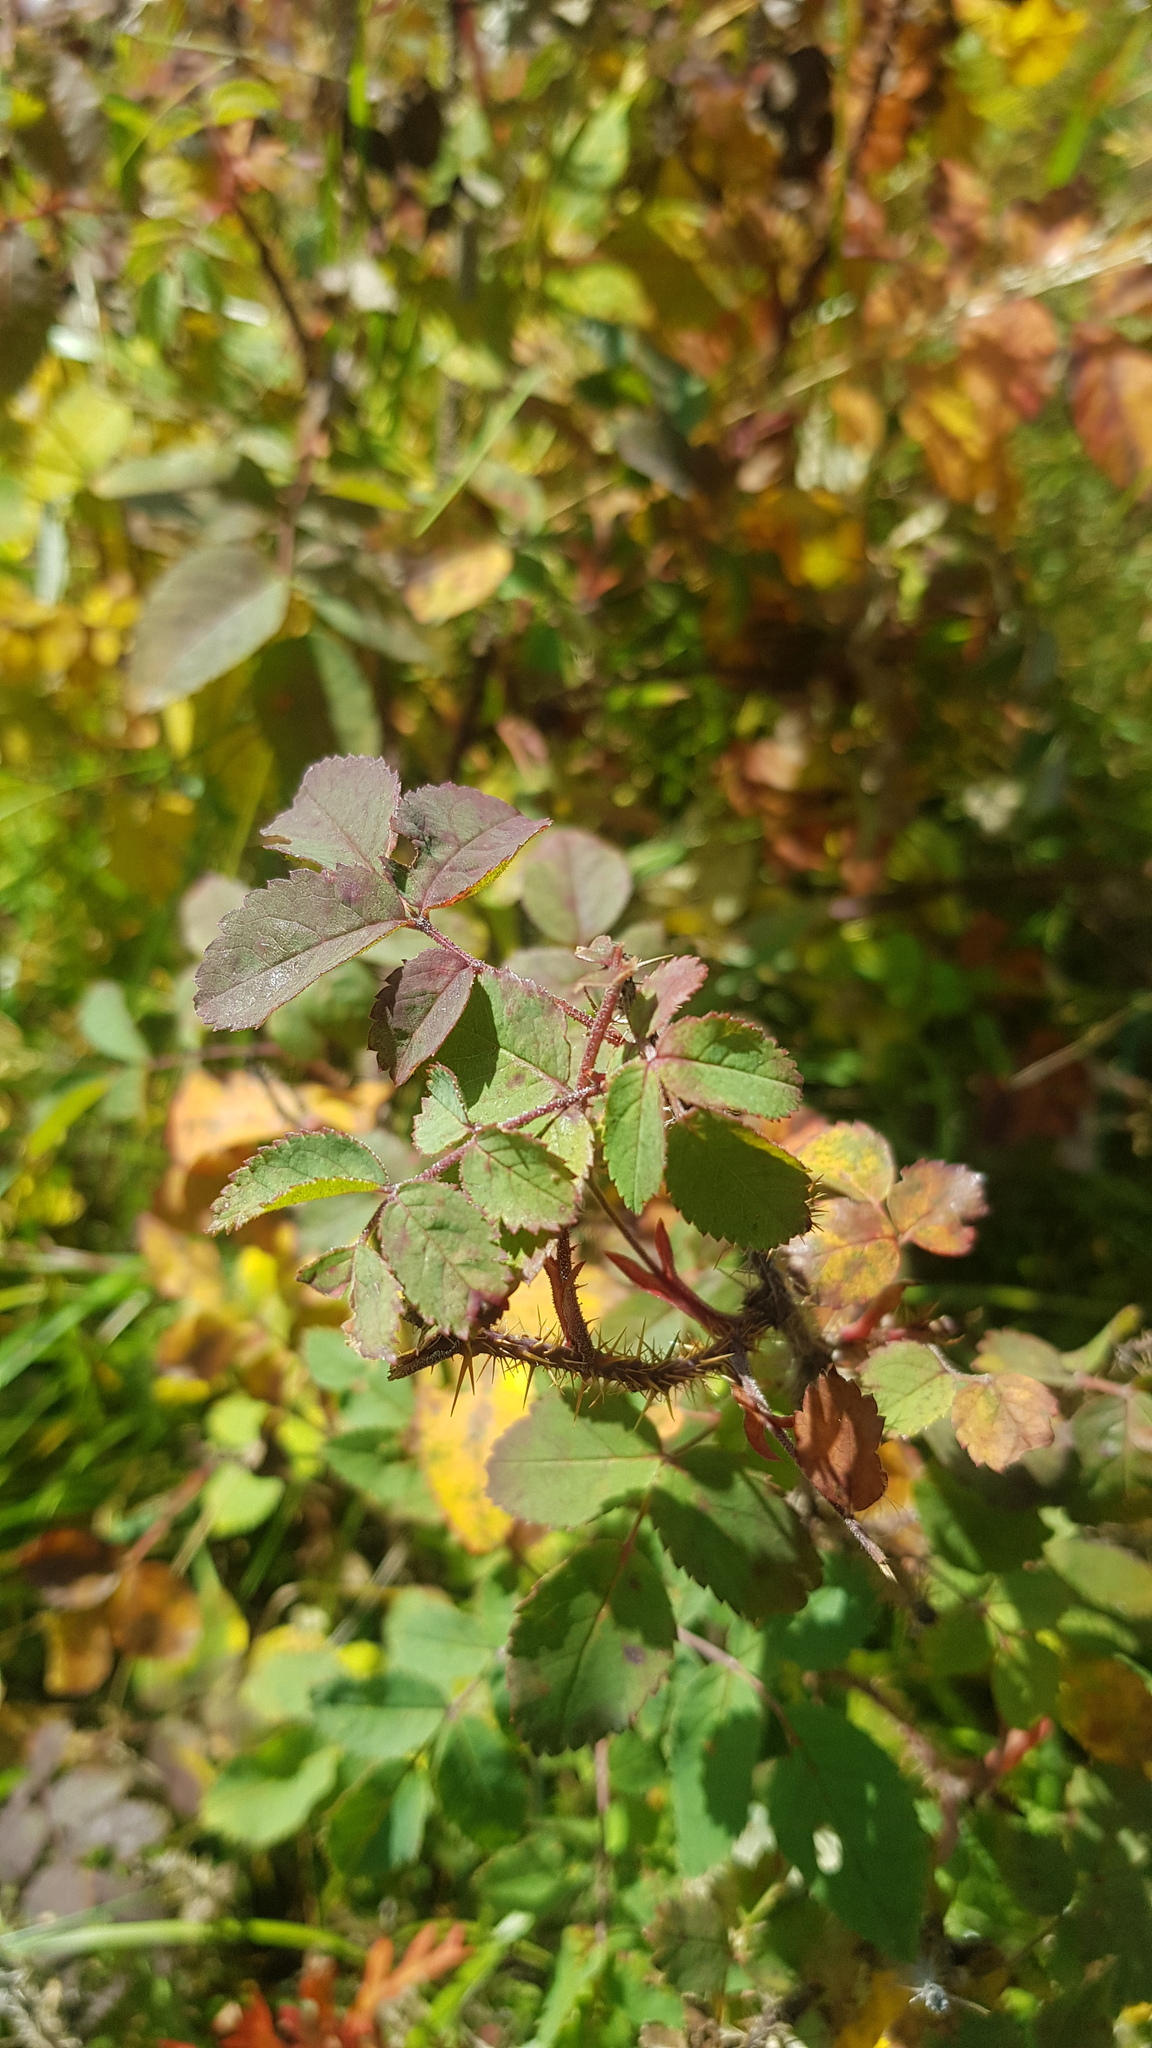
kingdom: Plantae
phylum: Tracheophyta
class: Magnoliopsida
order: Rosales
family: Rosaceae
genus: Rosa
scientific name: Rosa acicularis
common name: Prickly rose
